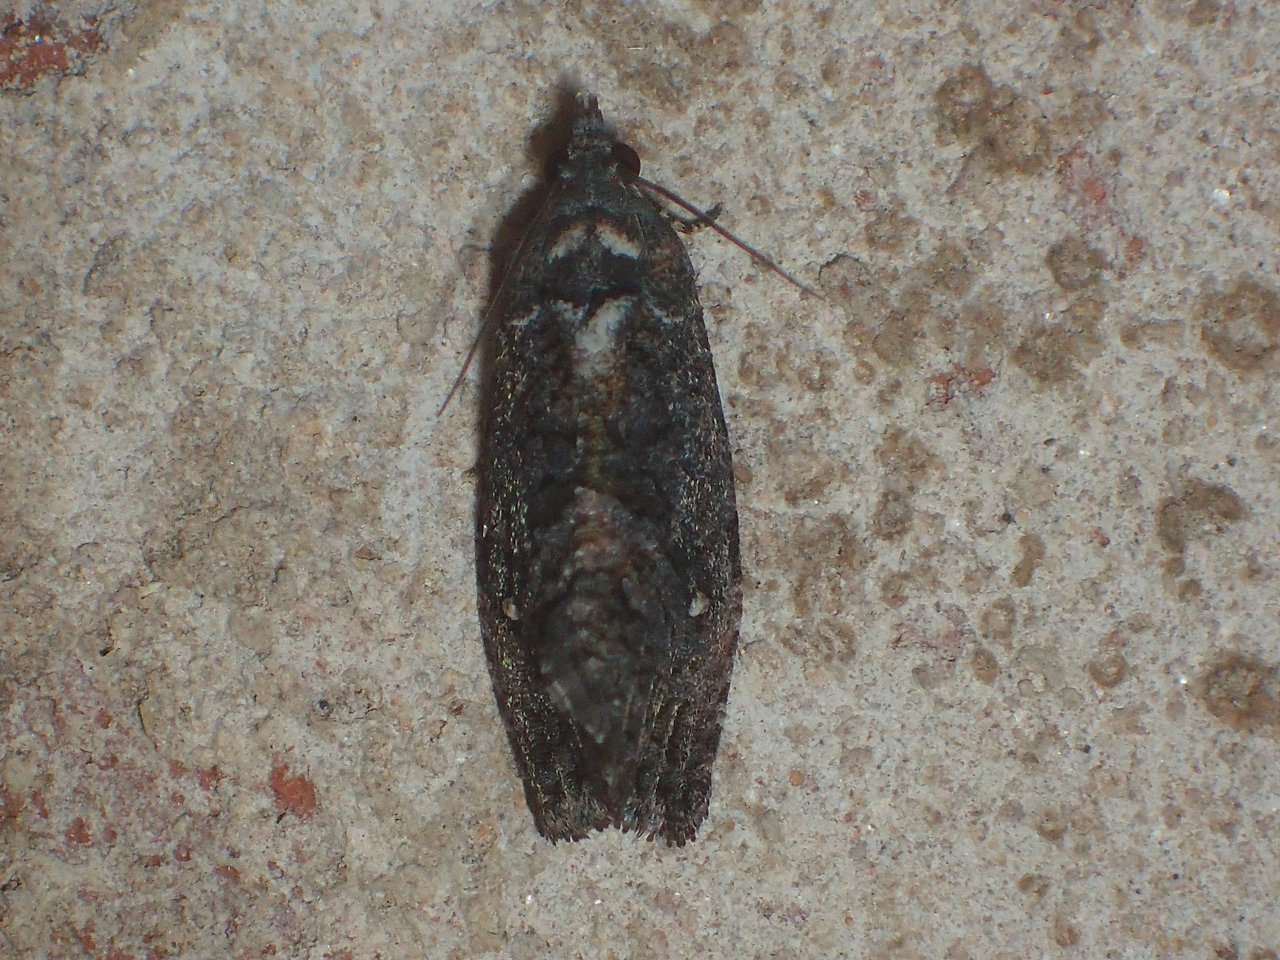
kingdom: Animalia
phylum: Arthropoda
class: Insecta
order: Lepidoptera
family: Tortricidae
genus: Gymnandrosoma
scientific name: Gymnandrosoma punctidiscanum
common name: Dotted ecdytolopha moth
